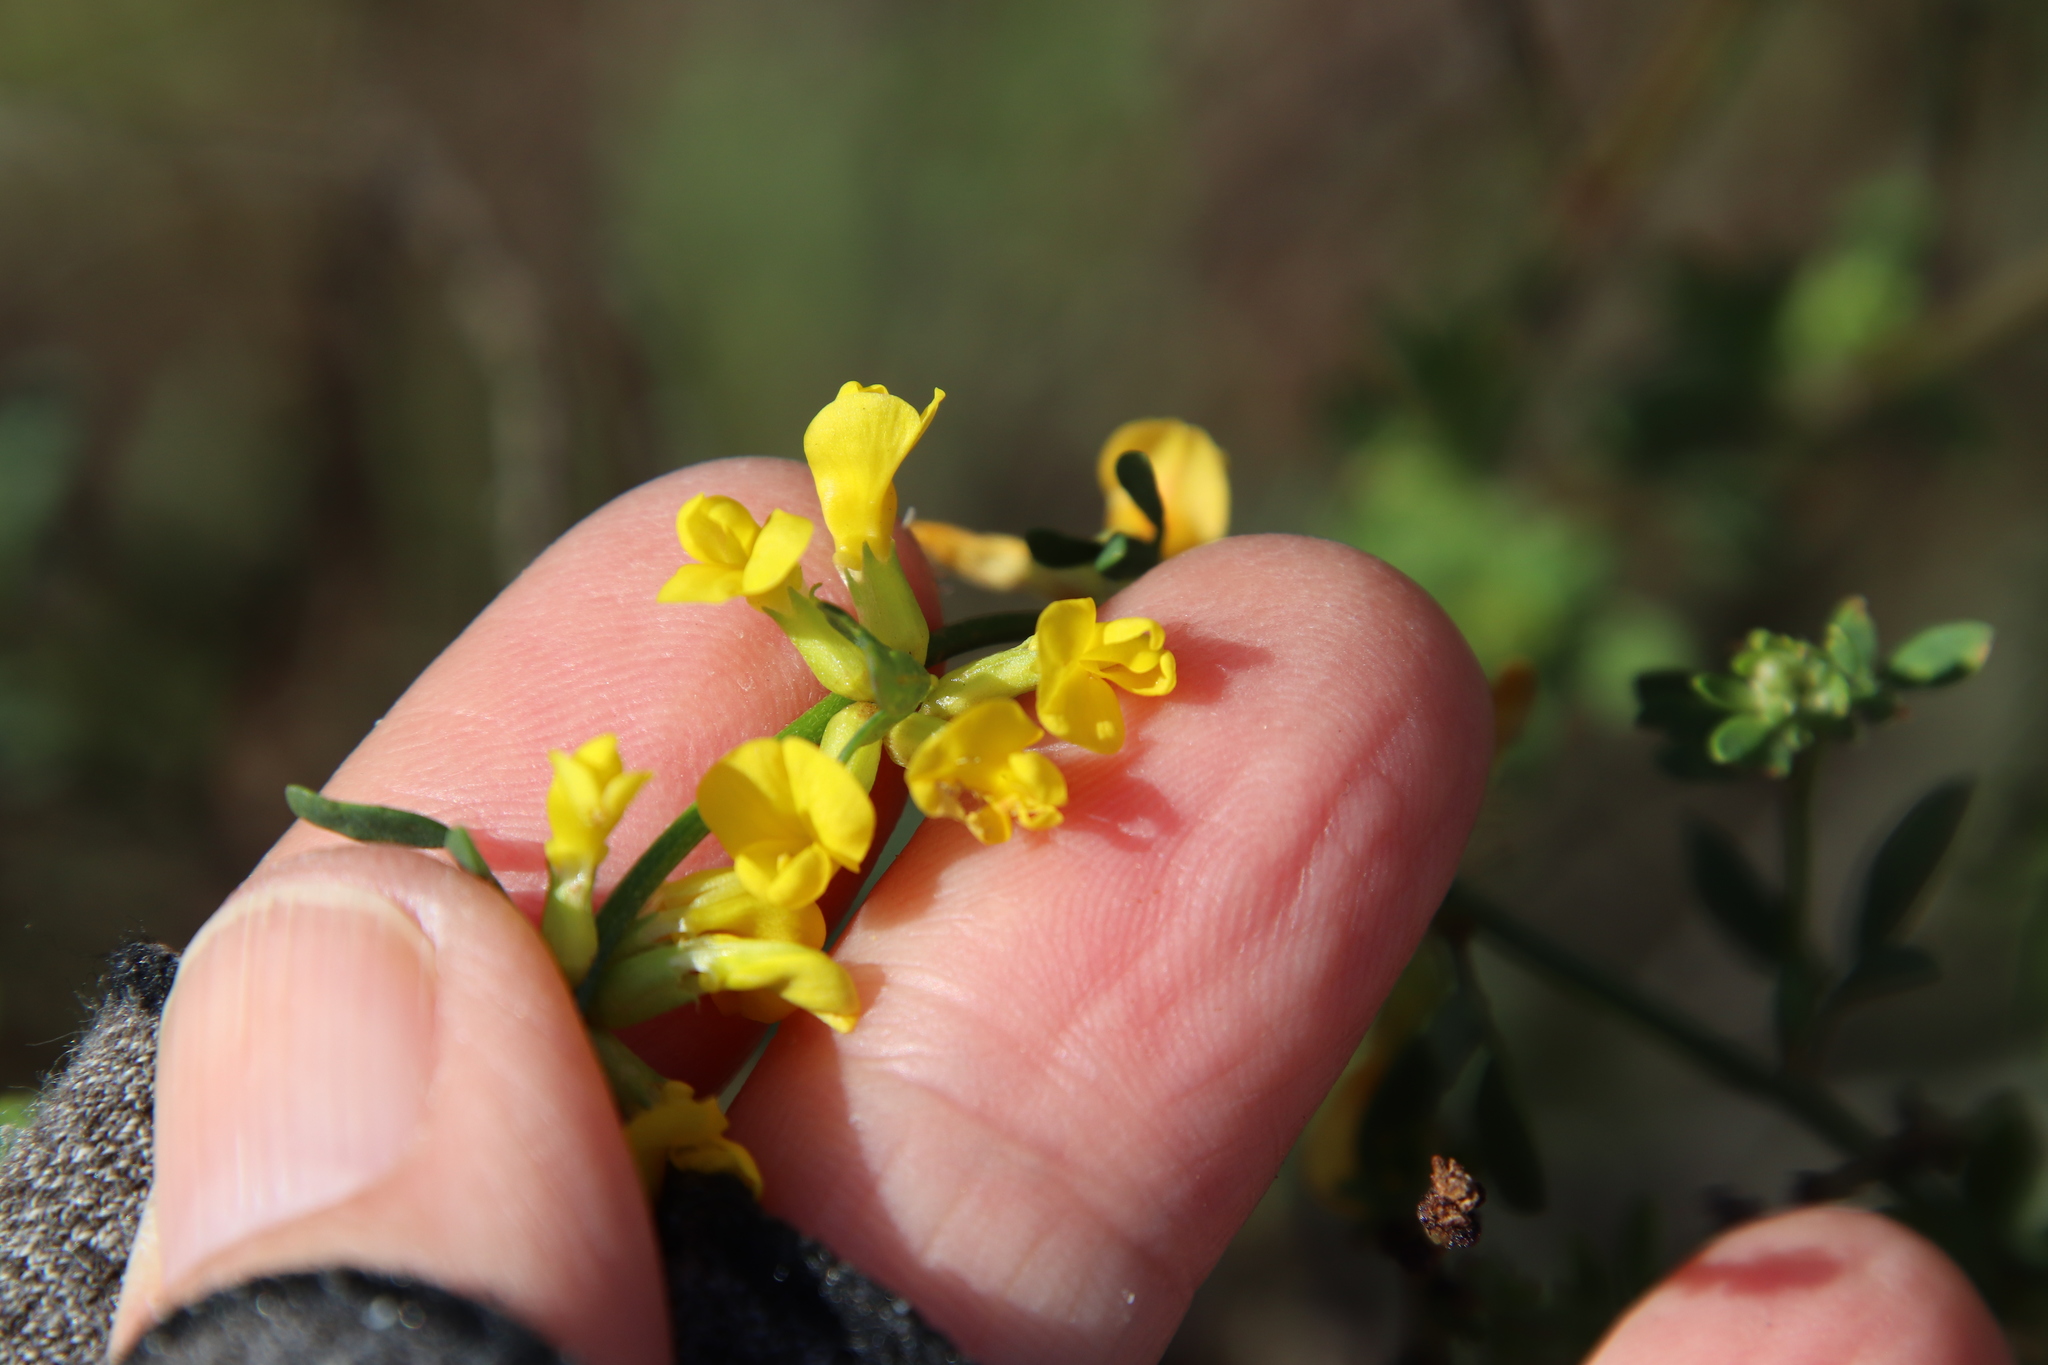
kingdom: Plantae
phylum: Tracheophyta
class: Magnoliopsida
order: Fabales
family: Fabaceae
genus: Acmispon
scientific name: Acmispon glaber
